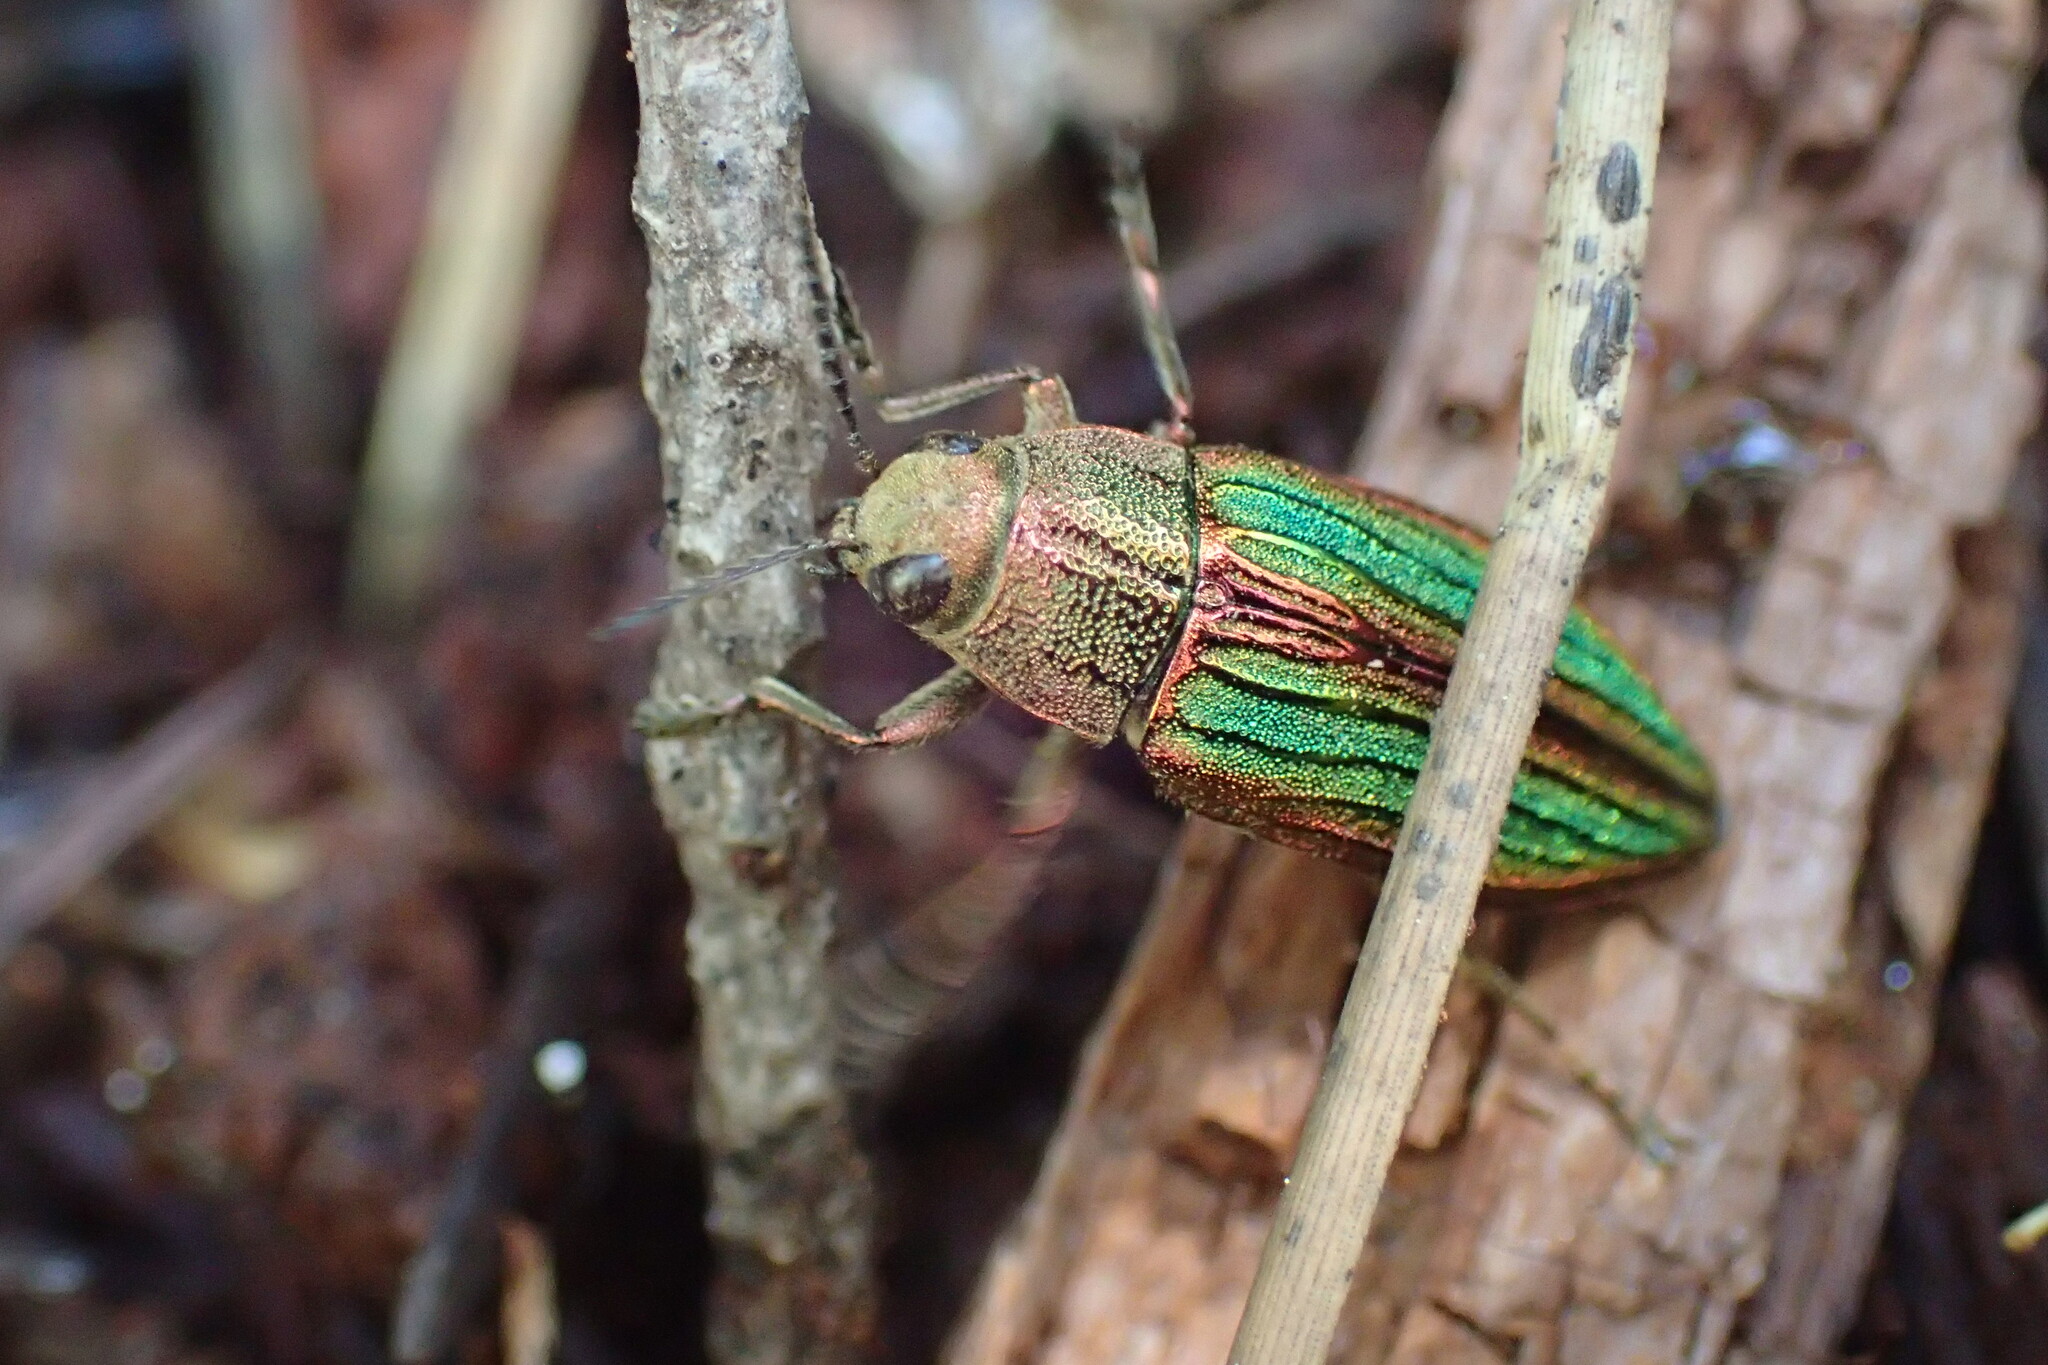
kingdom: Animalia
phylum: Arthropoda
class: Insecta
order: Coleoptera
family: Buprestidae
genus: Buprestis
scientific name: Buprestis aurulenta
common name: Golden buprestid
